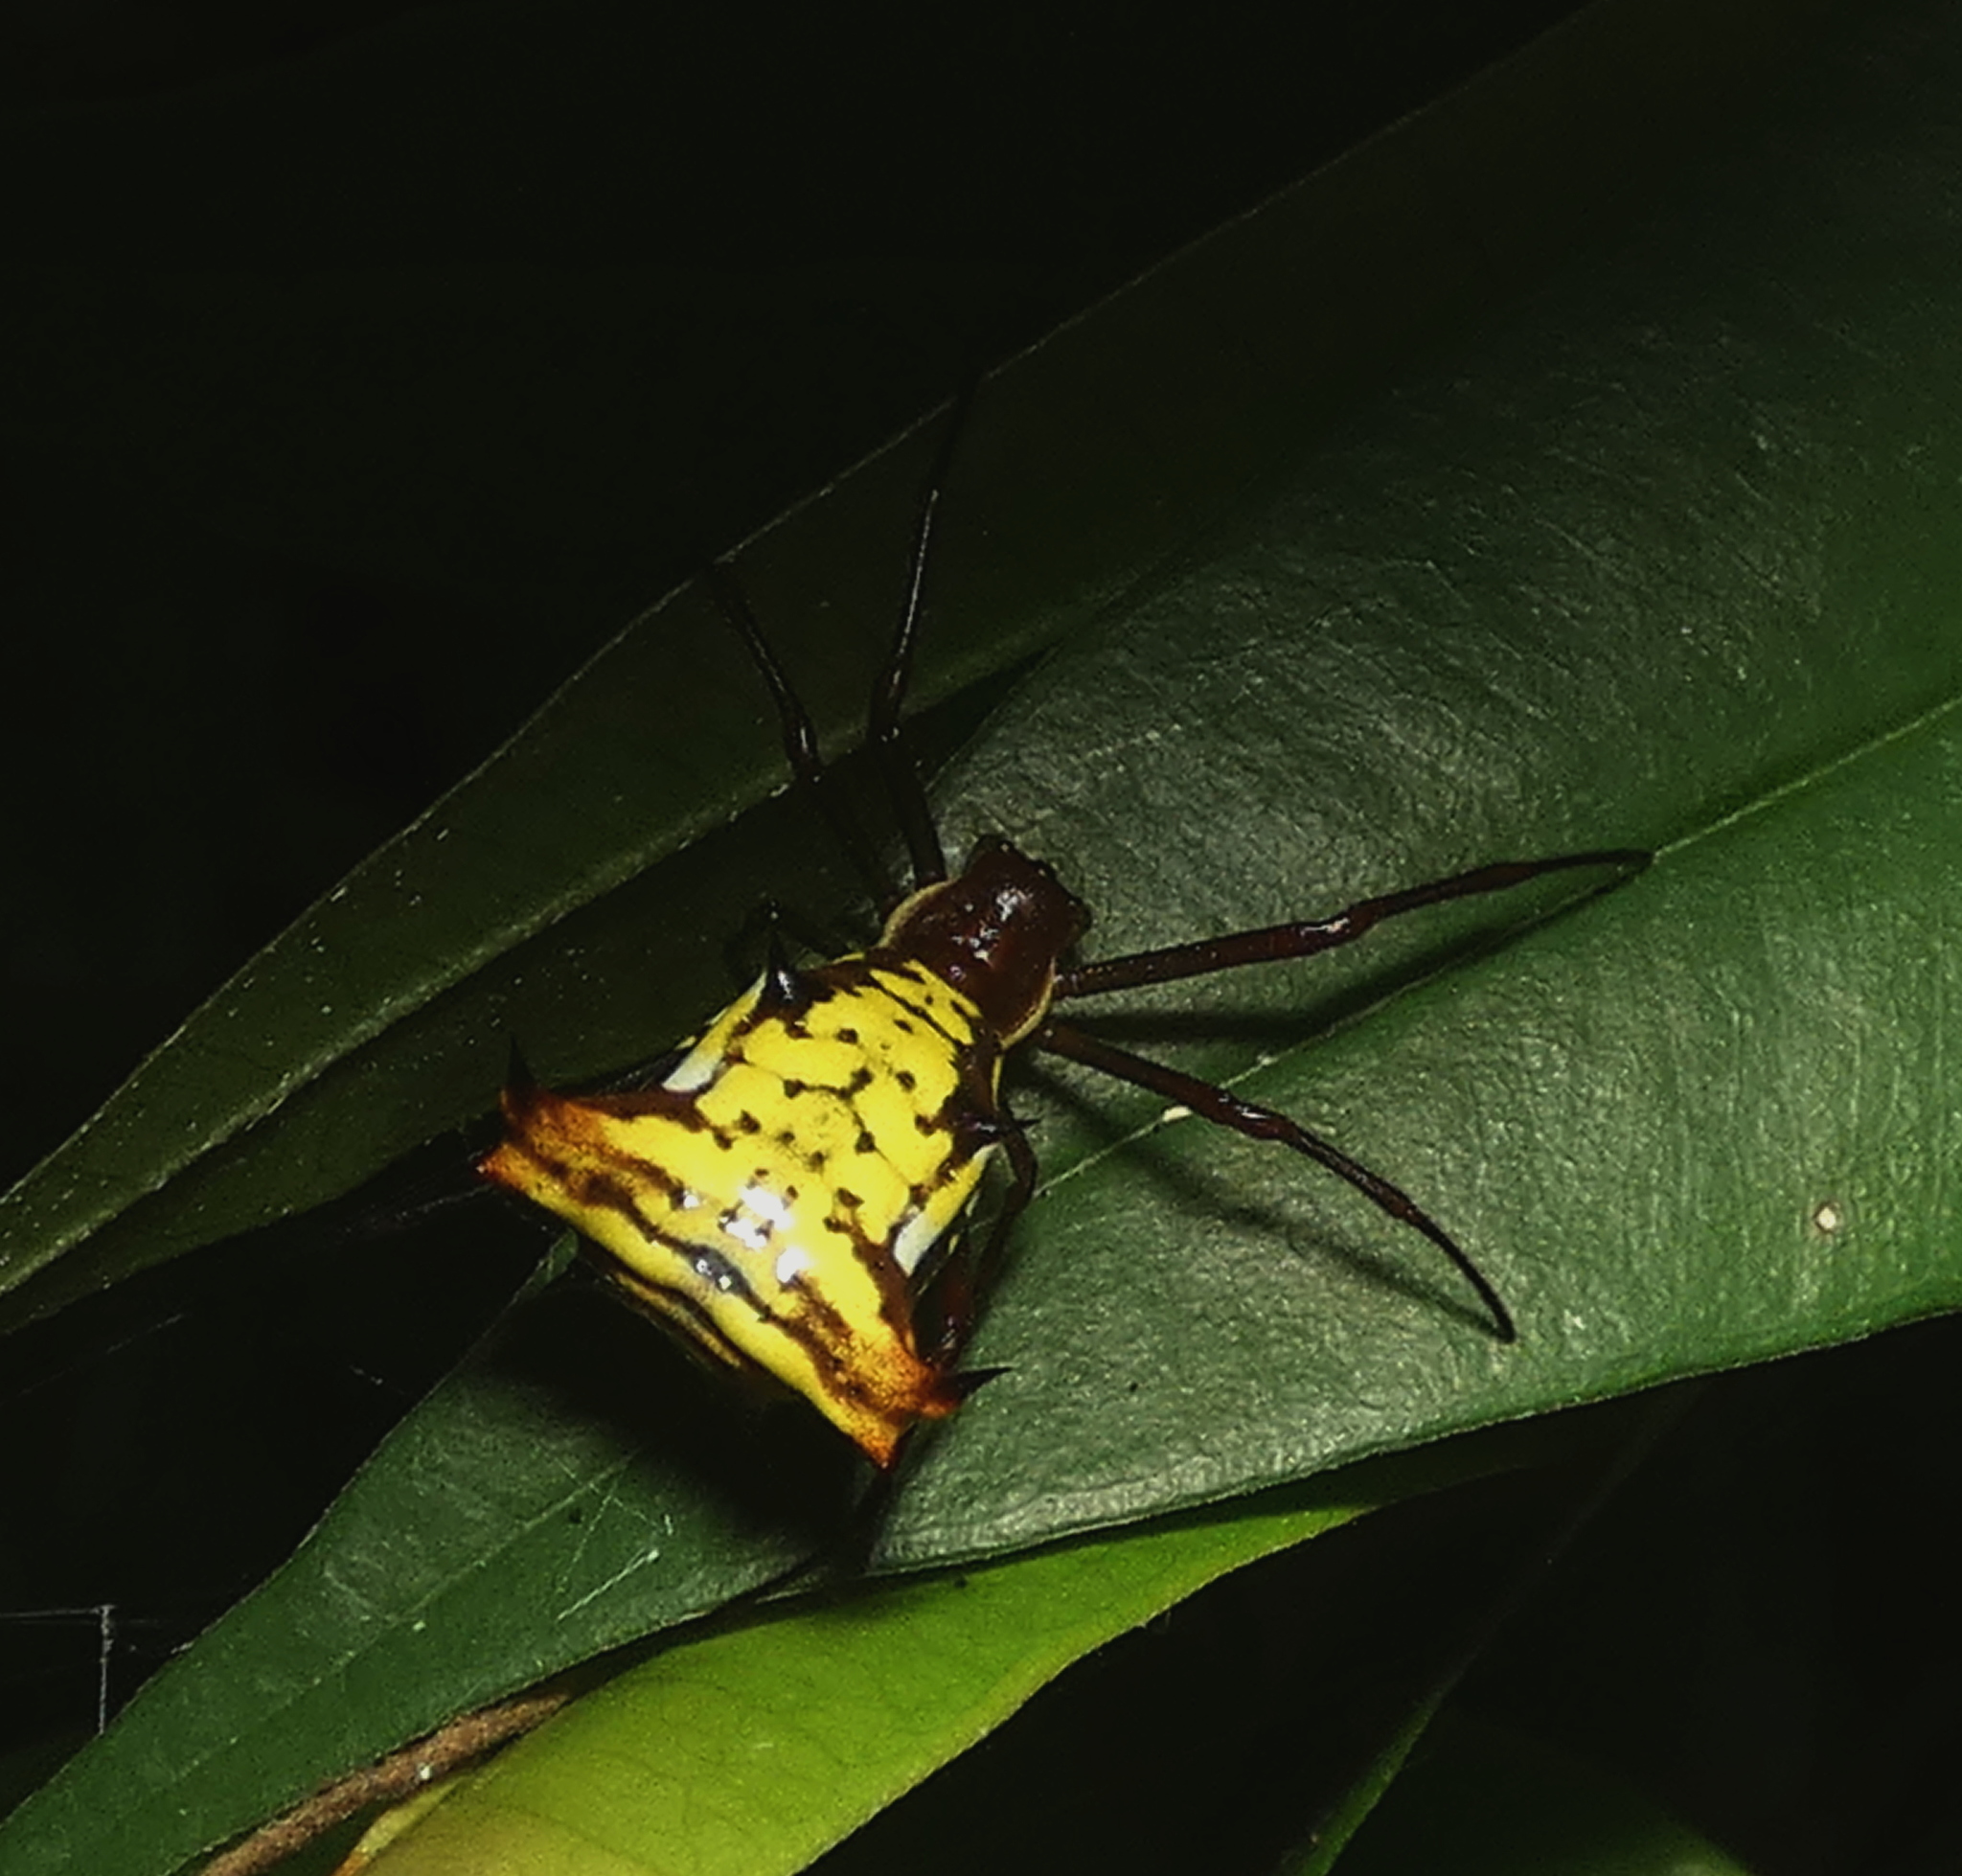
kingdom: Animalia
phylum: Arthropoda
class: Arachnida
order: Araneae
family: Araneidae
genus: Micrathena
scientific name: Micrathena fissispina
